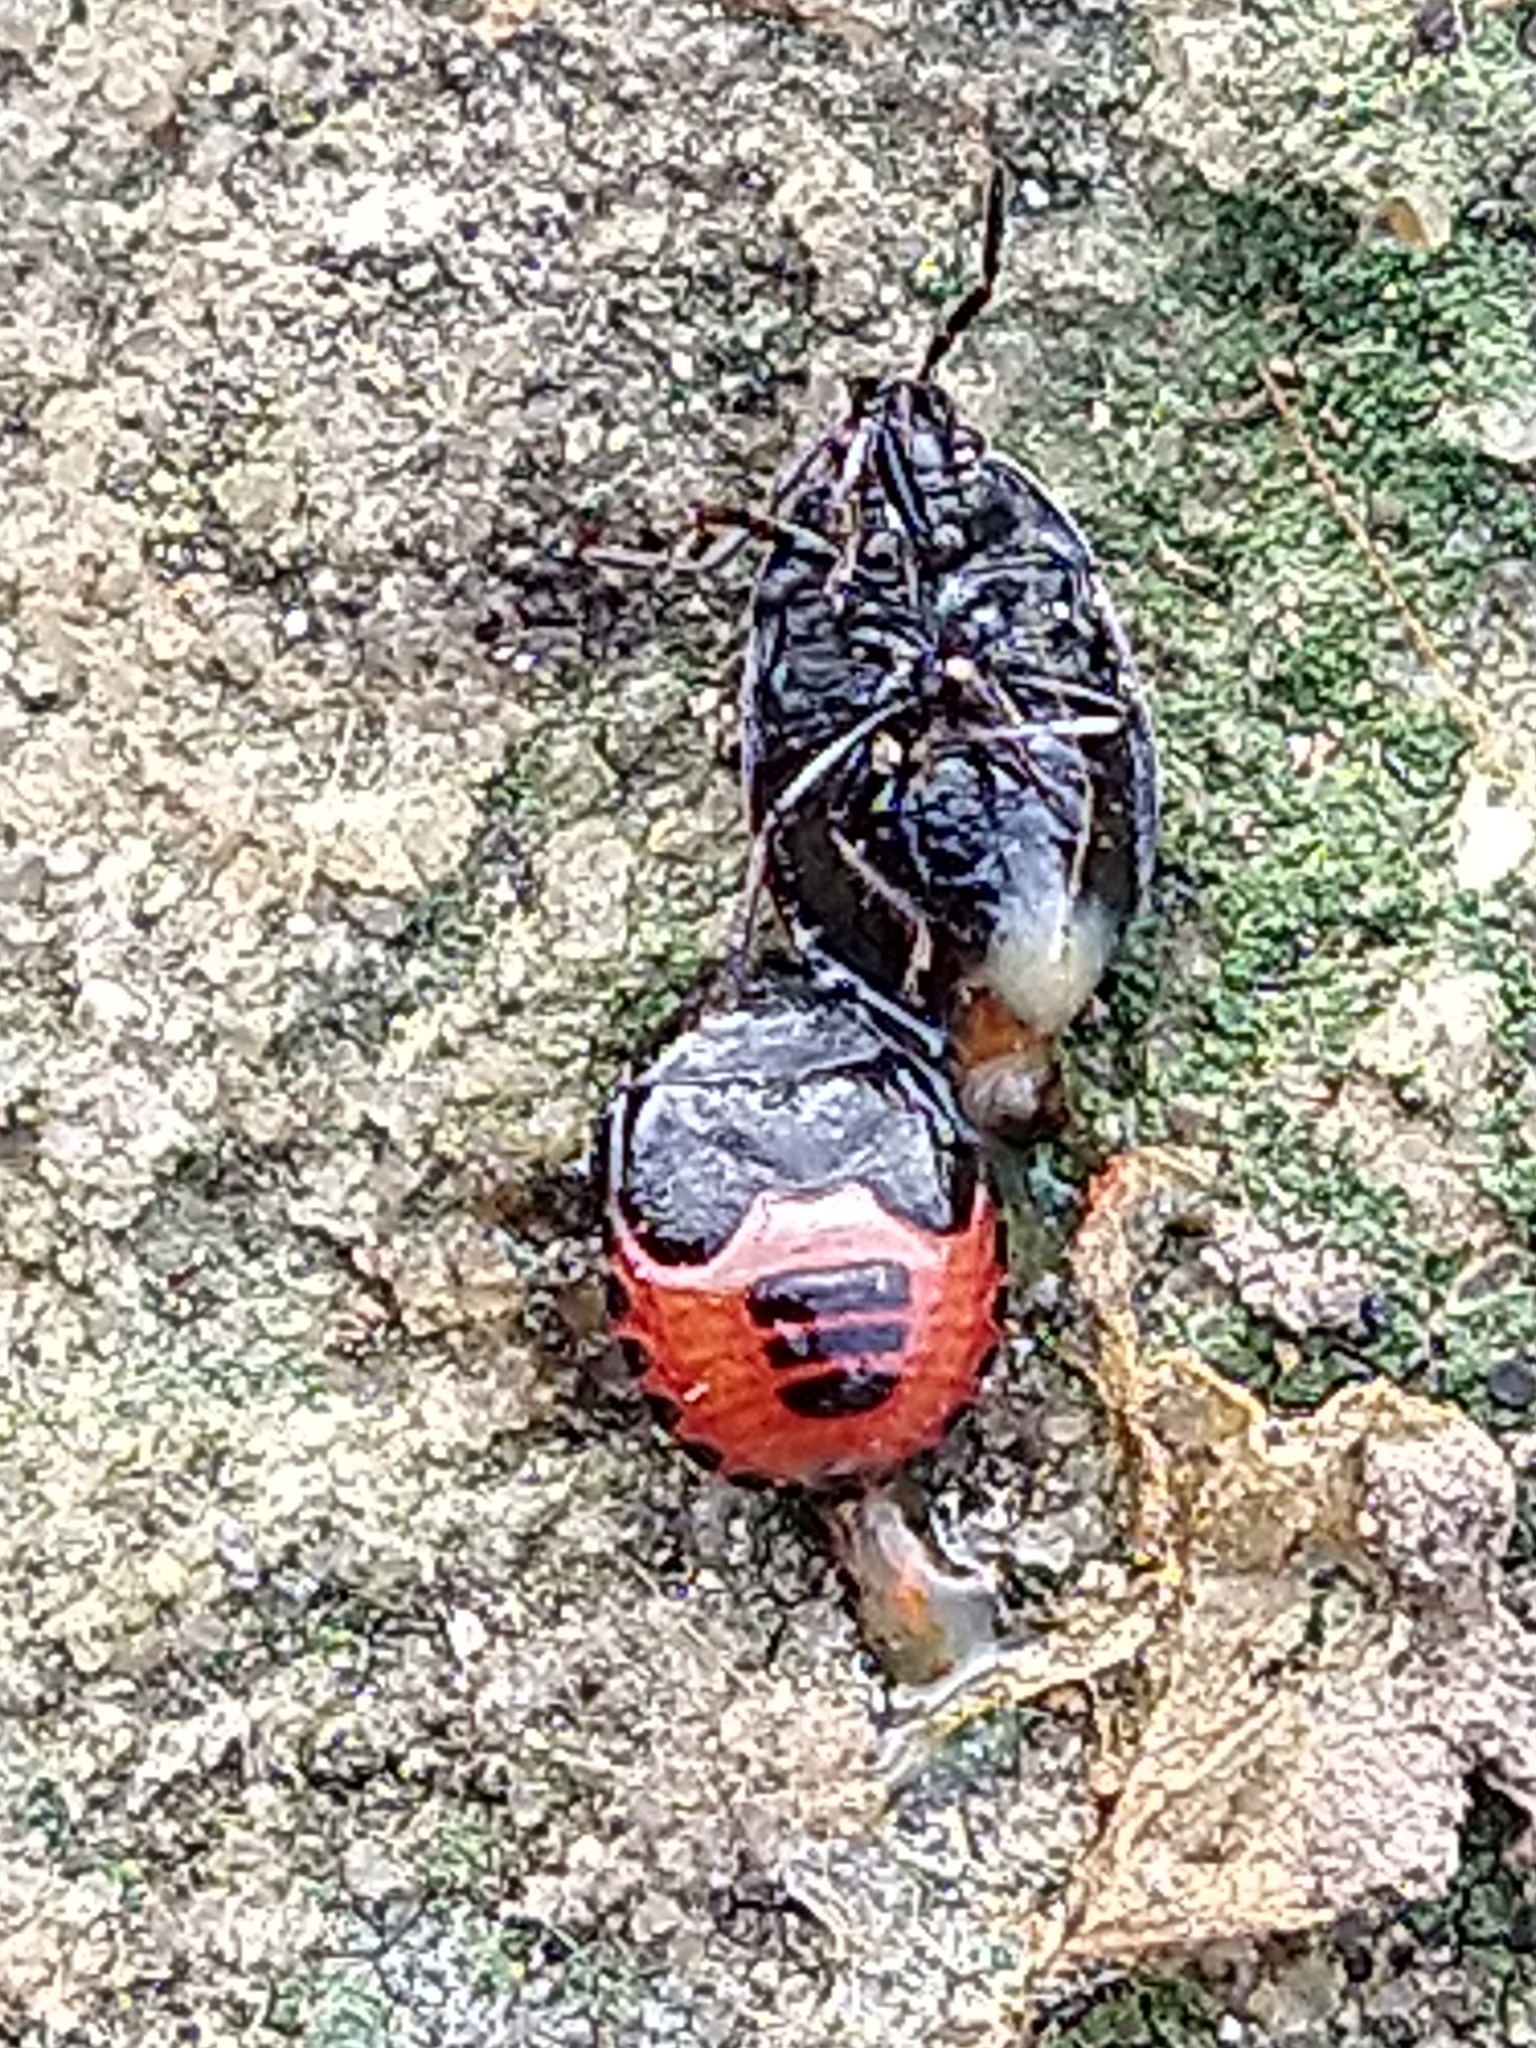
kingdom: Animalia
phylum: Arthropoda
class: Insecta
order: Hemiptera
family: Cydnidae
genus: Sehirus
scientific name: Sehirus cinctus
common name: White-margined burrower bug
